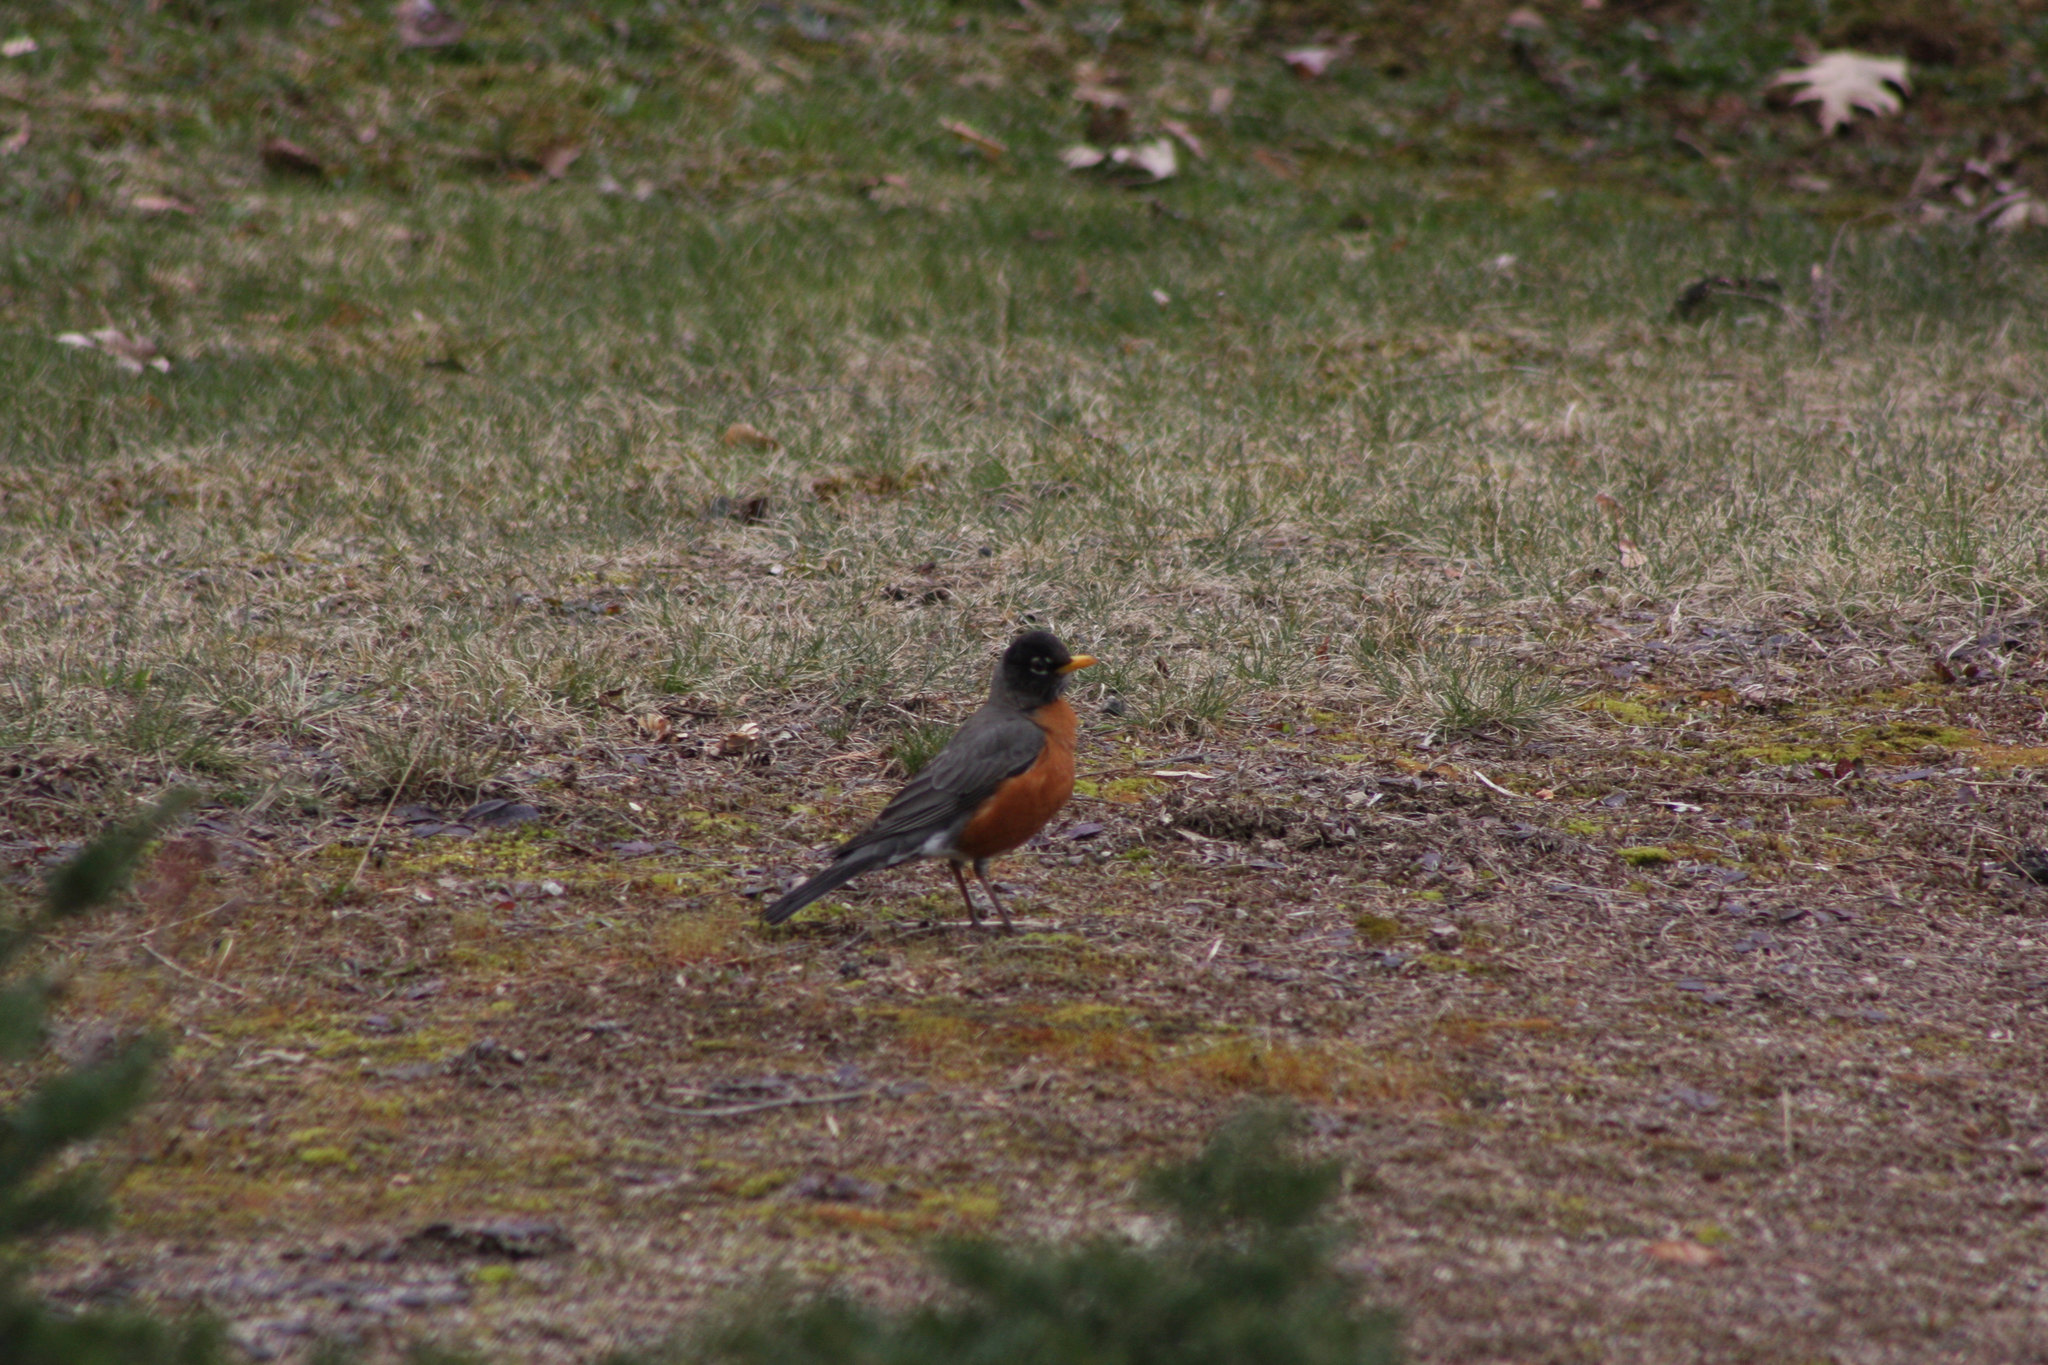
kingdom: Animalia
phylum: Chordata
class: Aves
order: Passeriformes
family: Turdidae
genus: Turdus
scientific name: Turdus migratorius
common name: American robin
